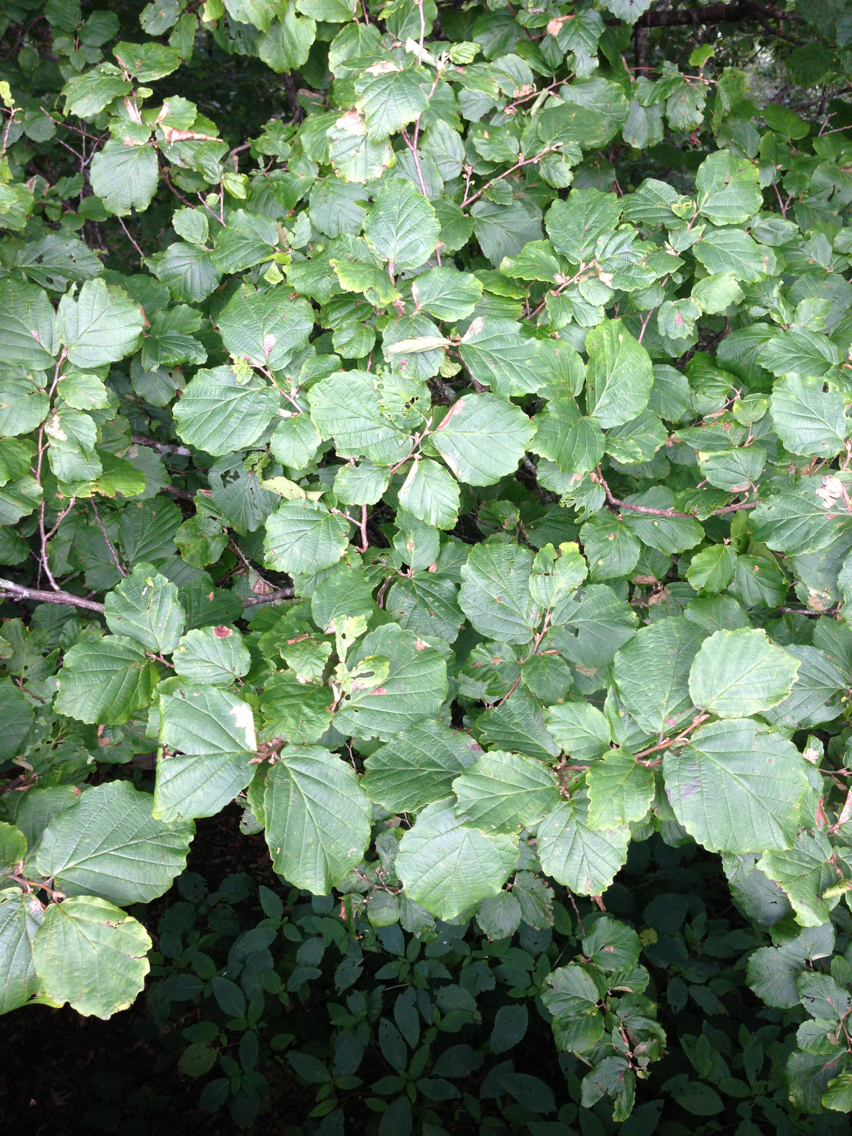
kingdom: Plantae
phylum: Tracheophyta
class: Magnoliopsida
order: Saxifragales
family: Hamamelidaceae
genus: Hamamelis
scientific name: Hamamelis virginiana
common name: Witch-hazel
